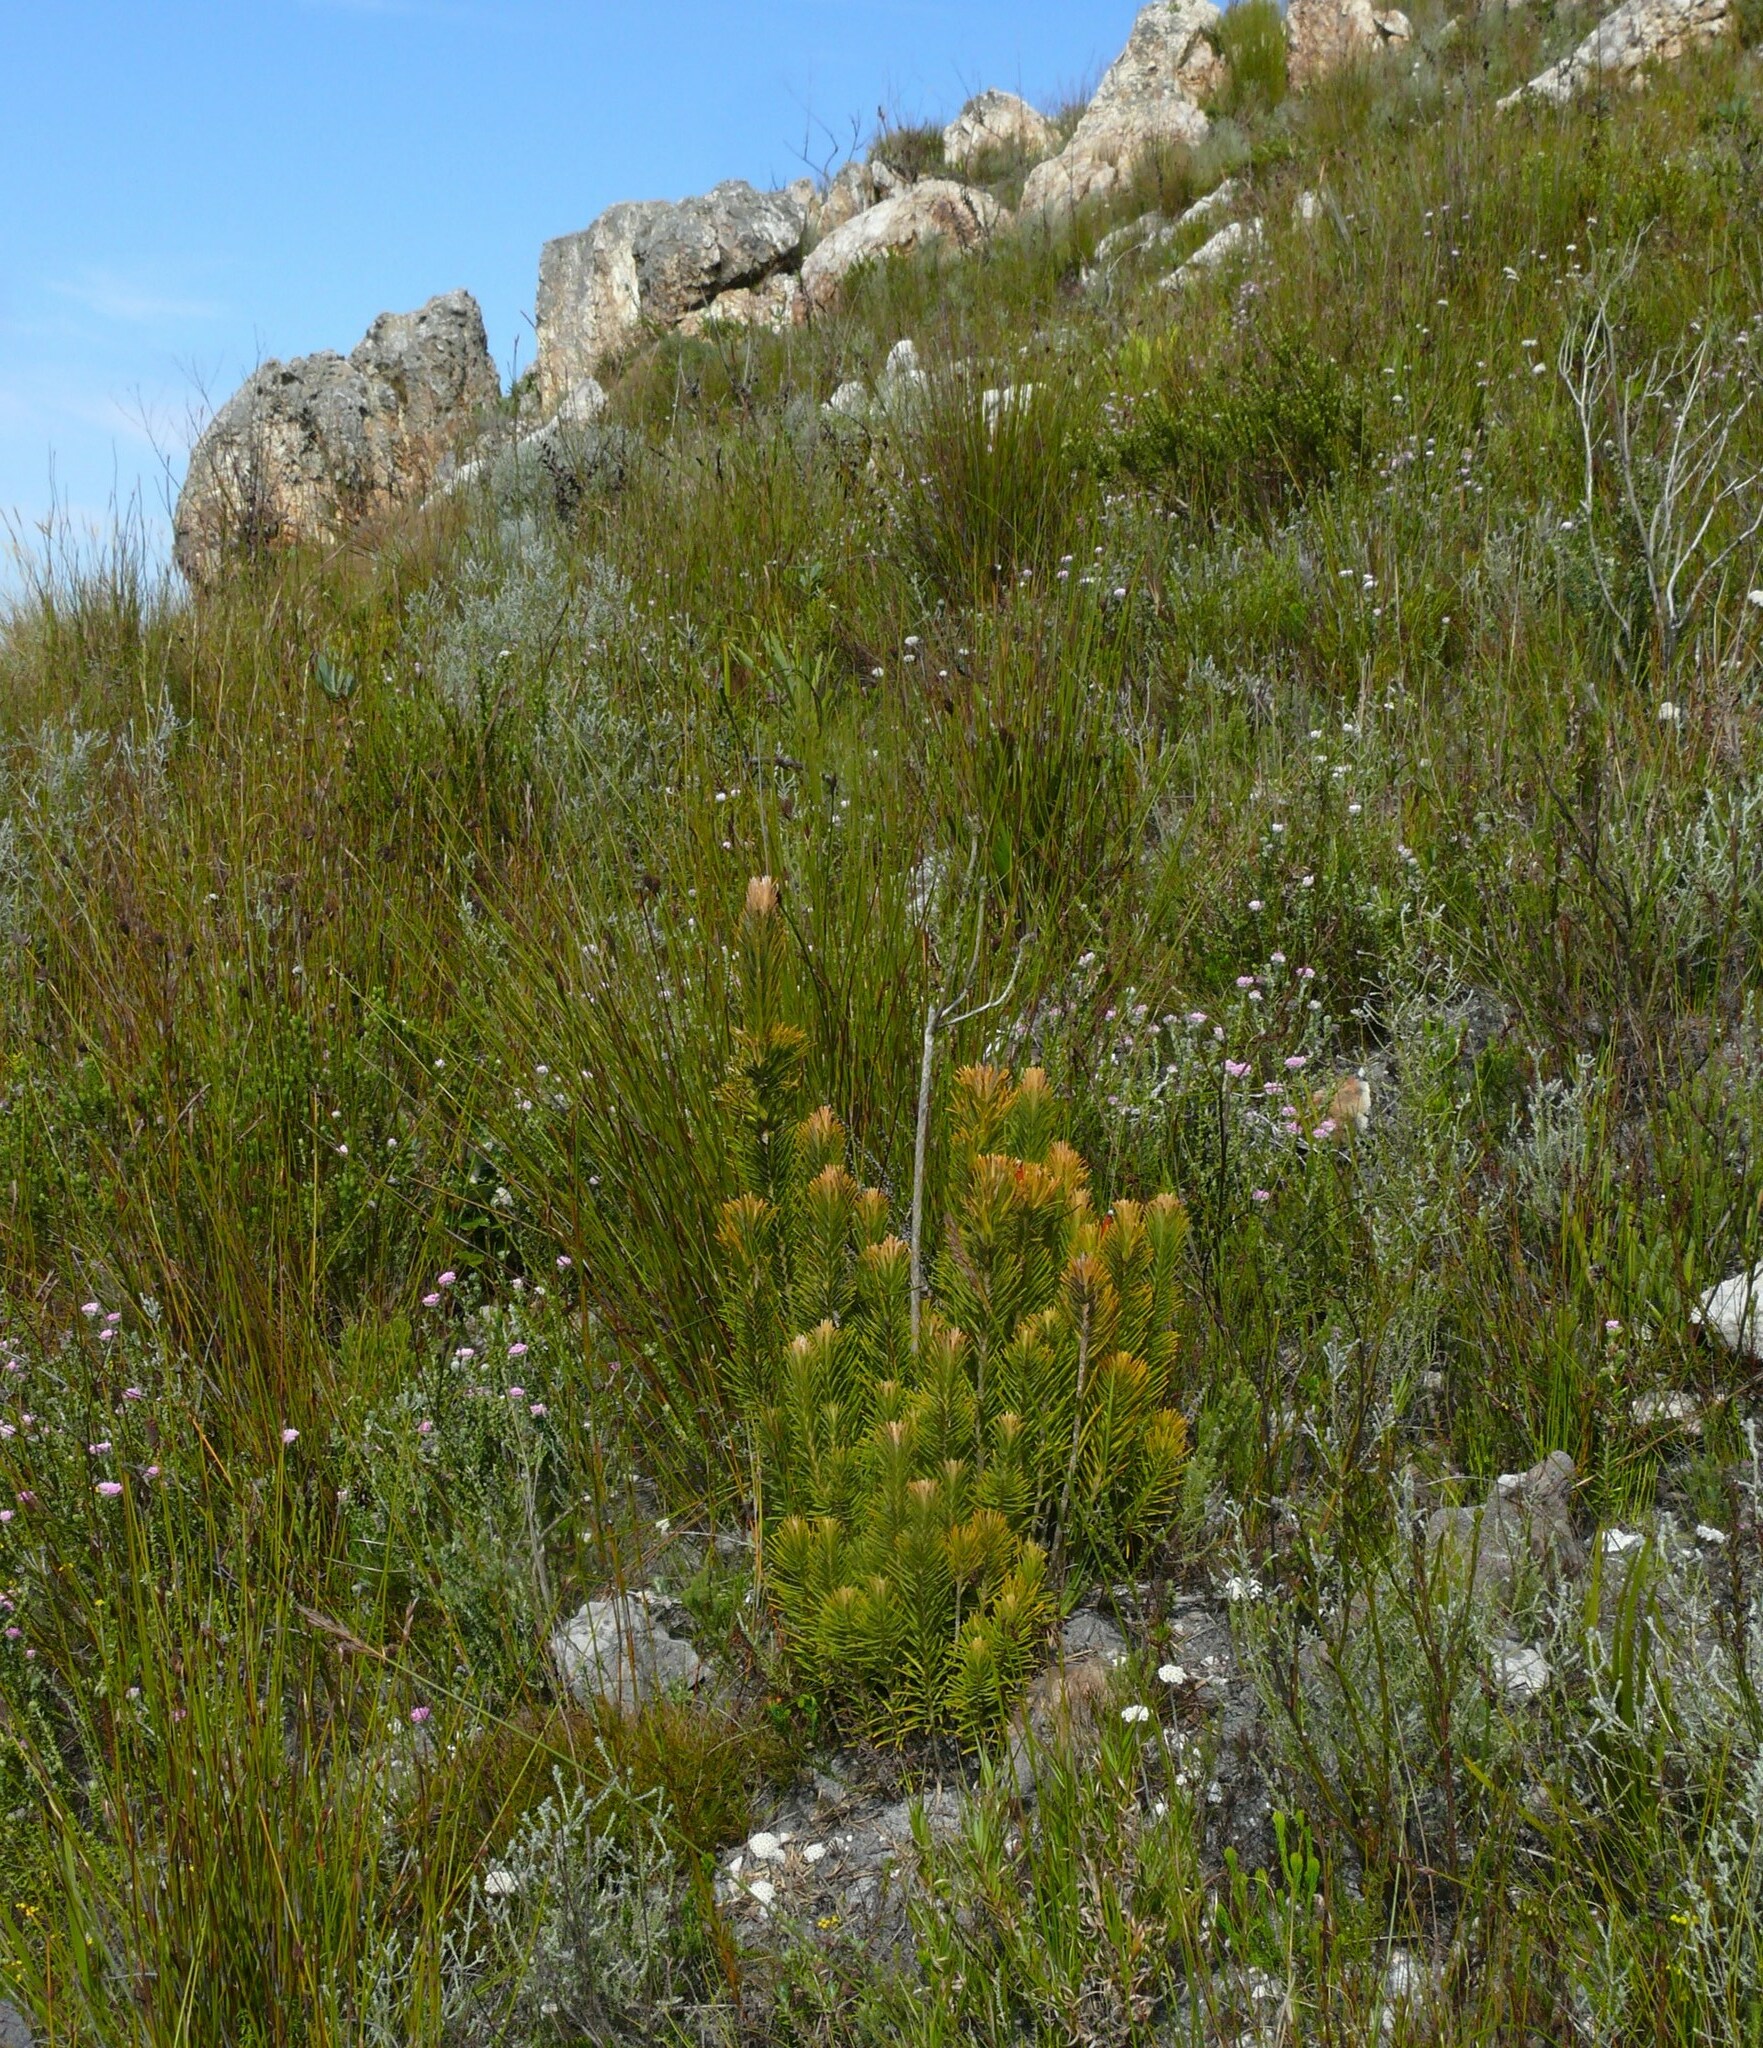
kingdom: Plantae
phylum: Tracheophyta
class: Magnoliopsida
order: Lamiales
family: Stilbaceae
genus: Retzia
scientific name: Retzia capensis
